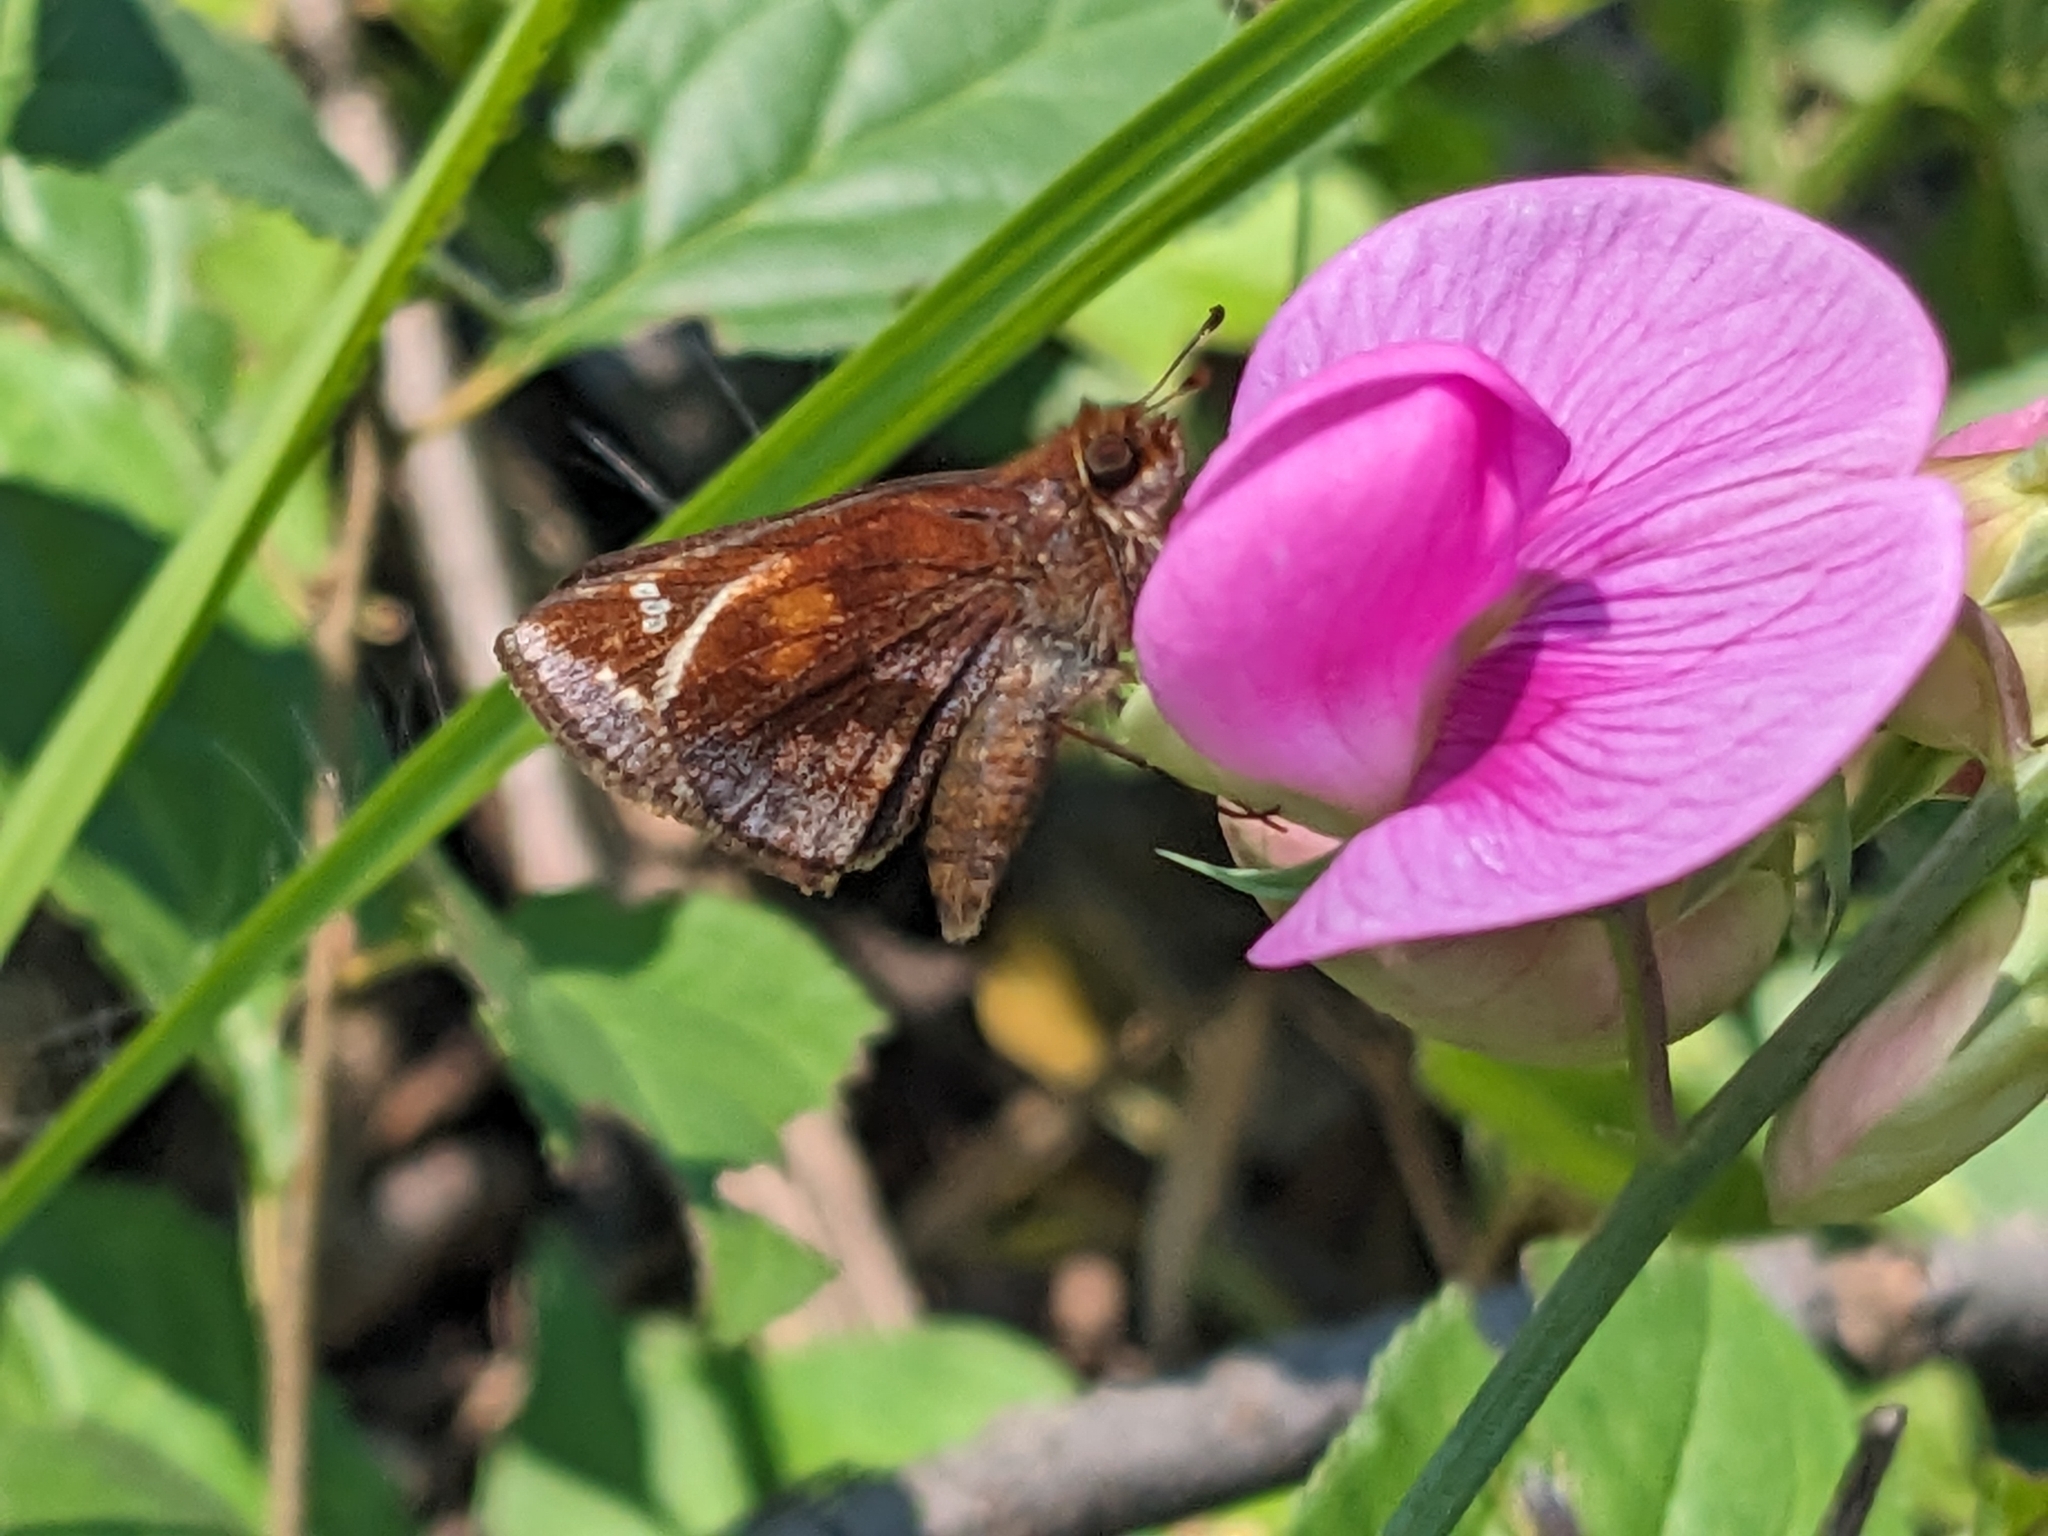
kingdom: Animalia
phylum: Arthropoda
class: Insecta
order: Lepidoptera
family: Hesperiidae
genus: Lon
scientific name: Lon zabulon
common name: Zabulon skipper
